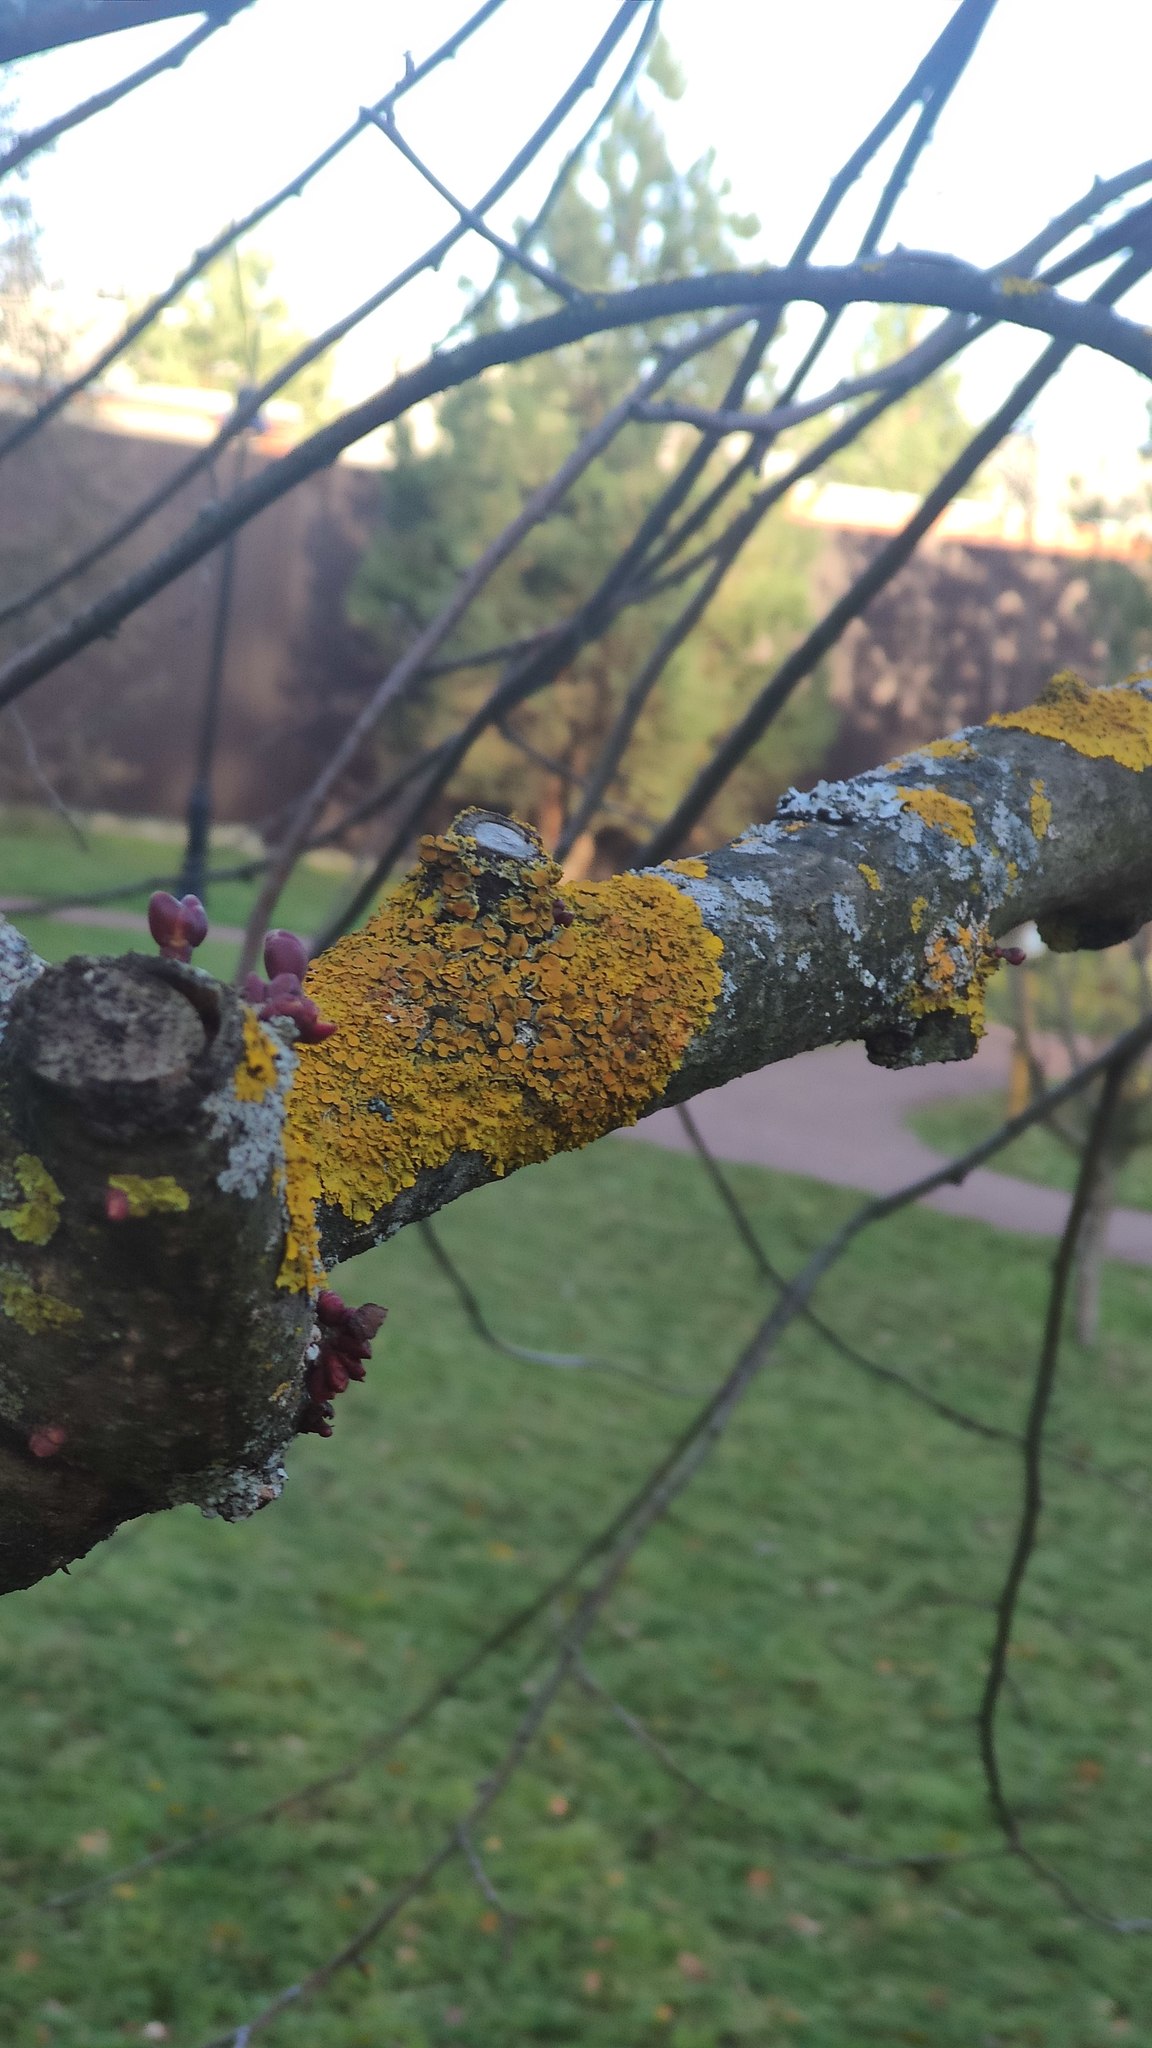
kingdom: Fungi
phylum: Ascomycota
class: Lecanoromycetes
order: Teloschistales
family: Teloschistaceae
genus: Xanthoria
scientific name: Xanthoria parietina
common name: Common orange lichen
